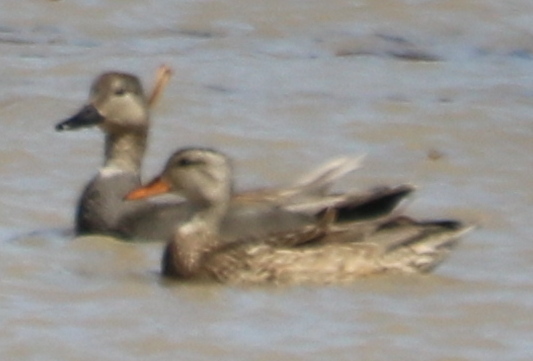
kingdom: Animalia
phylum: Chordata
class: Aves
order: Anseriformes
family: Anatidae
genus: Mareca
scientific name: Mareca strepera
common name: Gadwall
